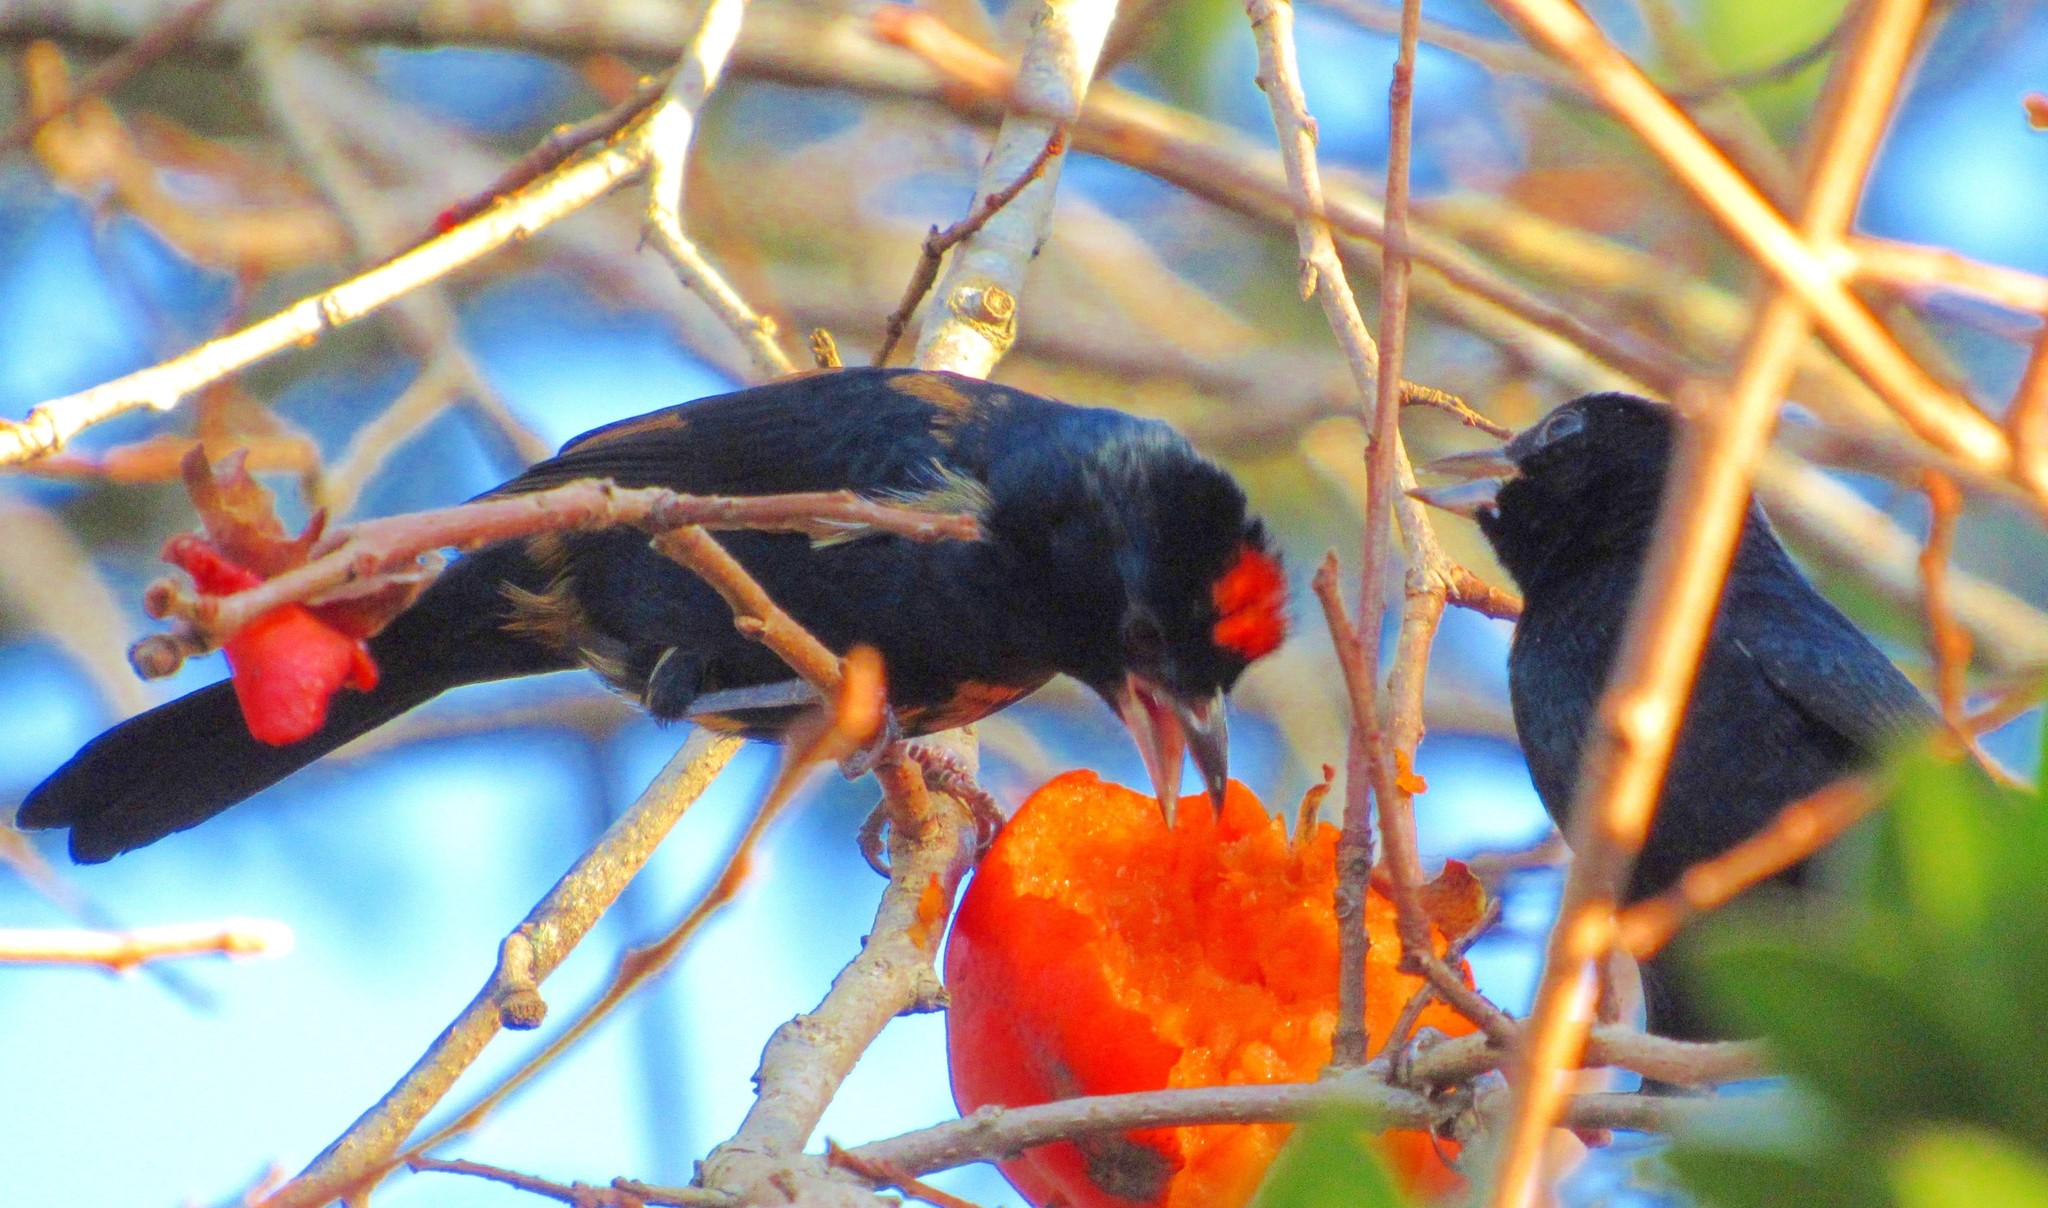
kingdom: Animalia
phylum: Chordata
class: Aves
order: Passeriformes
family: Thraupidae
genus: Tachyphonus
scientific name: Tachyphonus coronatus
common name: Ruby-crowned tanager
